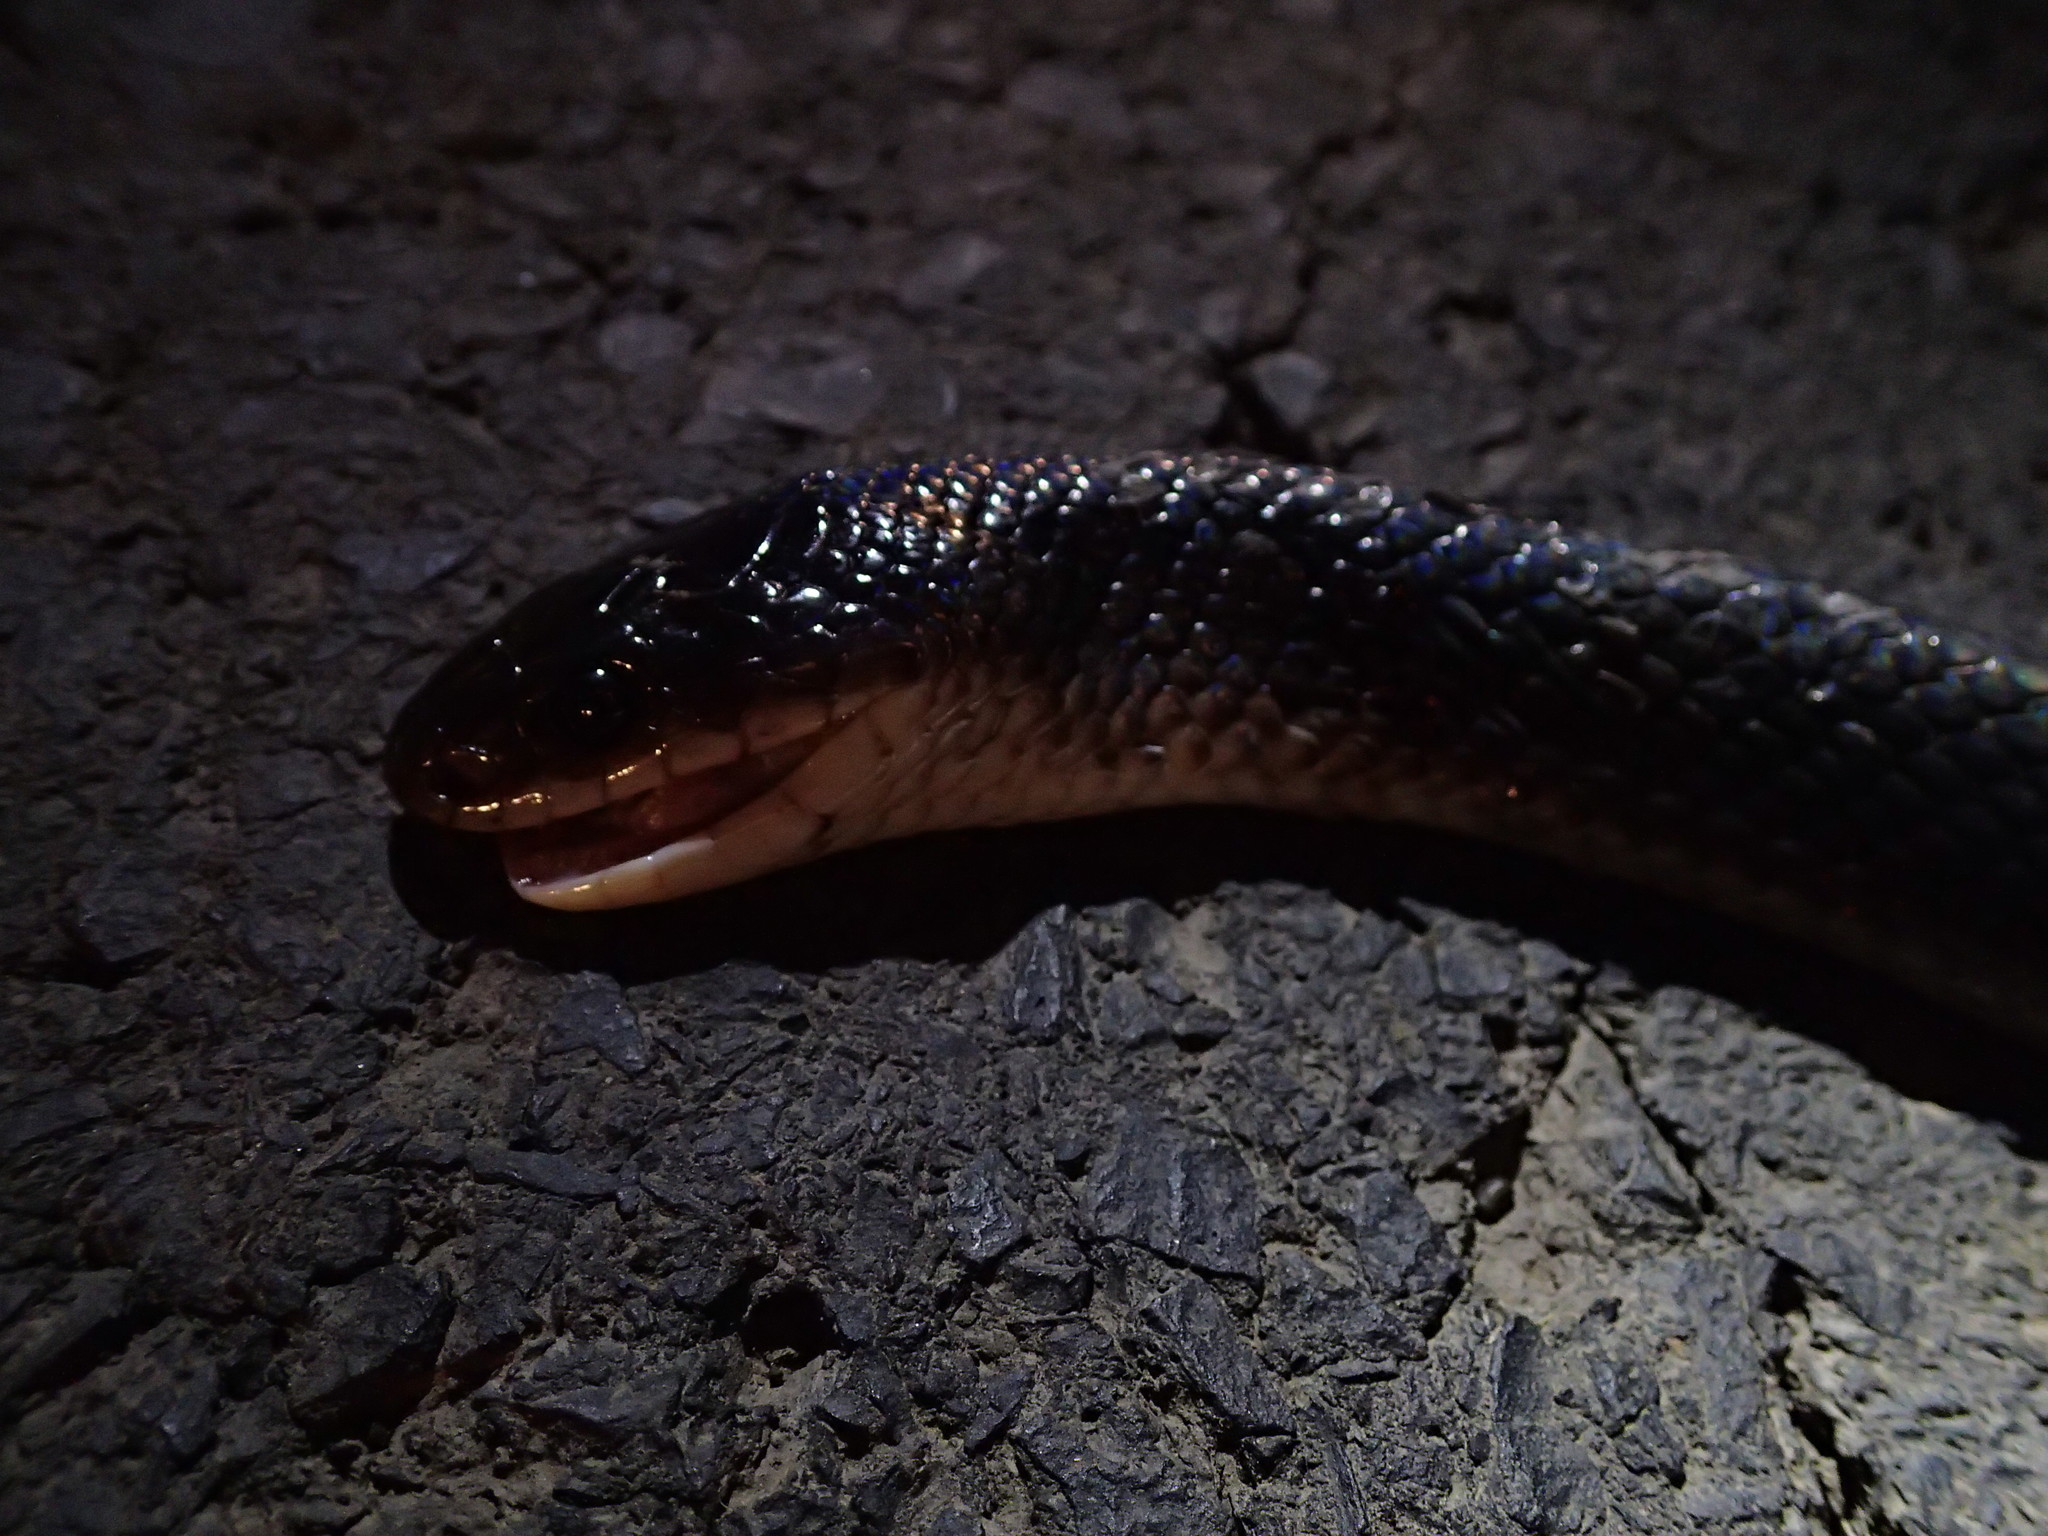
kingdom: Animalia
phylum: Chordata
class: Squamata
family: Colubridae
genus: Boiruna
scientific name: Boiruna maculata
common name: Mussurana
